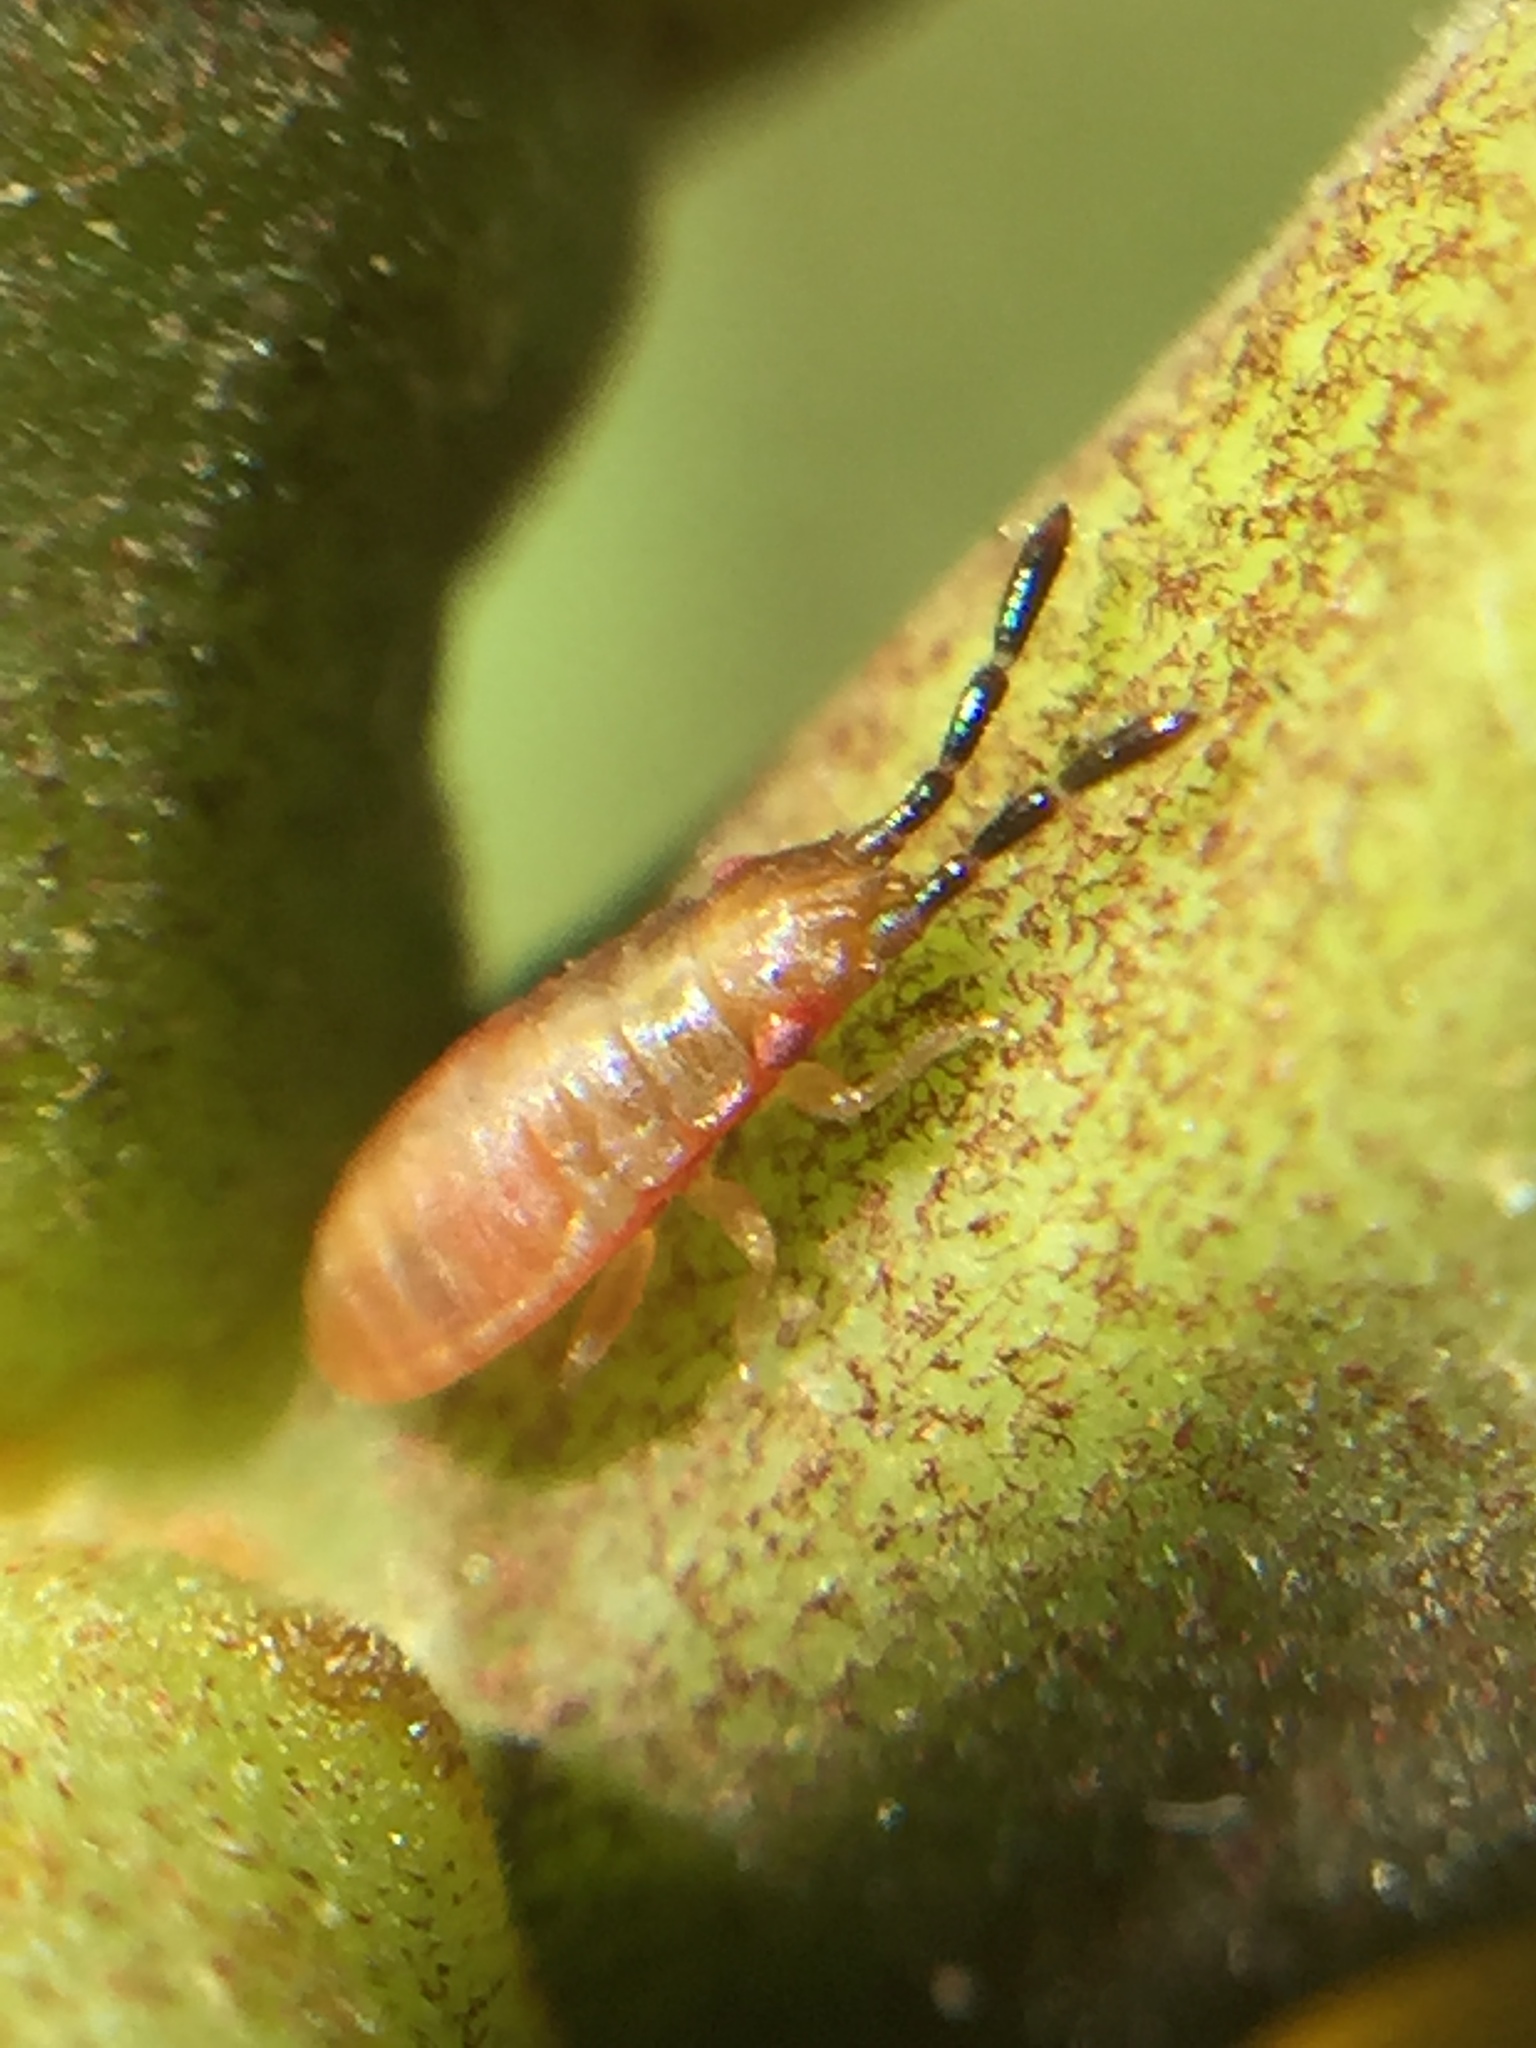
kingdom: Animalia
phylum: Arthropoda
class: Insecta
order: Hemiptera
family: Meschiidae
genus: Meschia
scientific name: Meschia barrowensis
